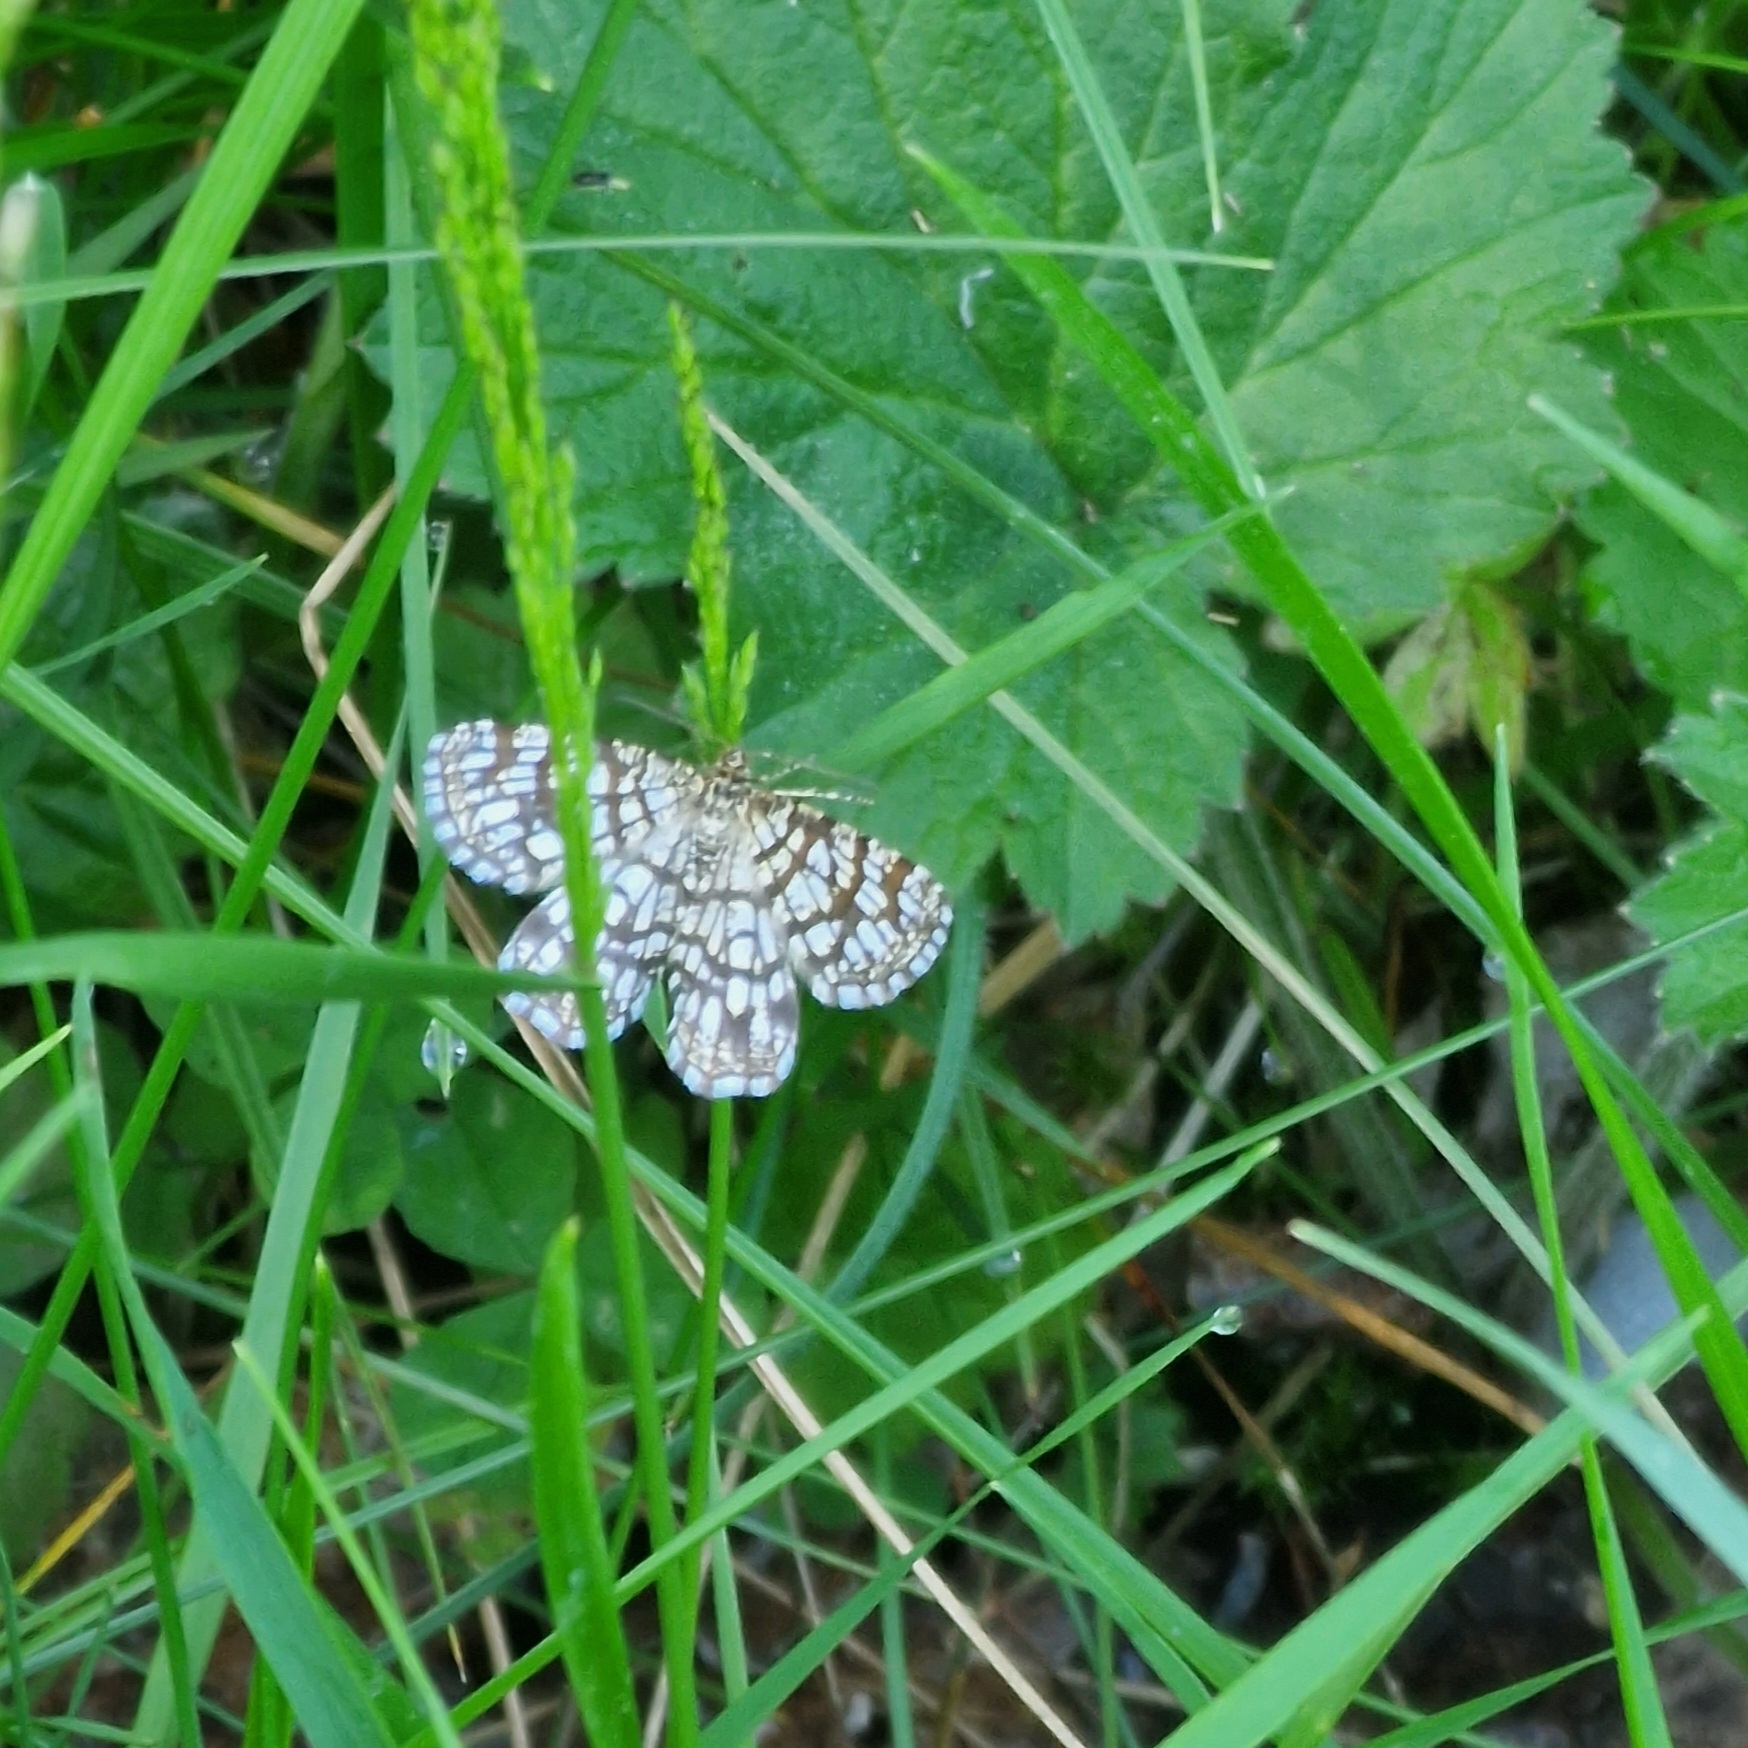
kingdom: Animalia
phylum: Arthropoda
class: Insecta
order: Lepidoptera
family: Geometridae
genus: Chiasmia
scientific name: Chiasmia clathrata
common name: Latticed heath
